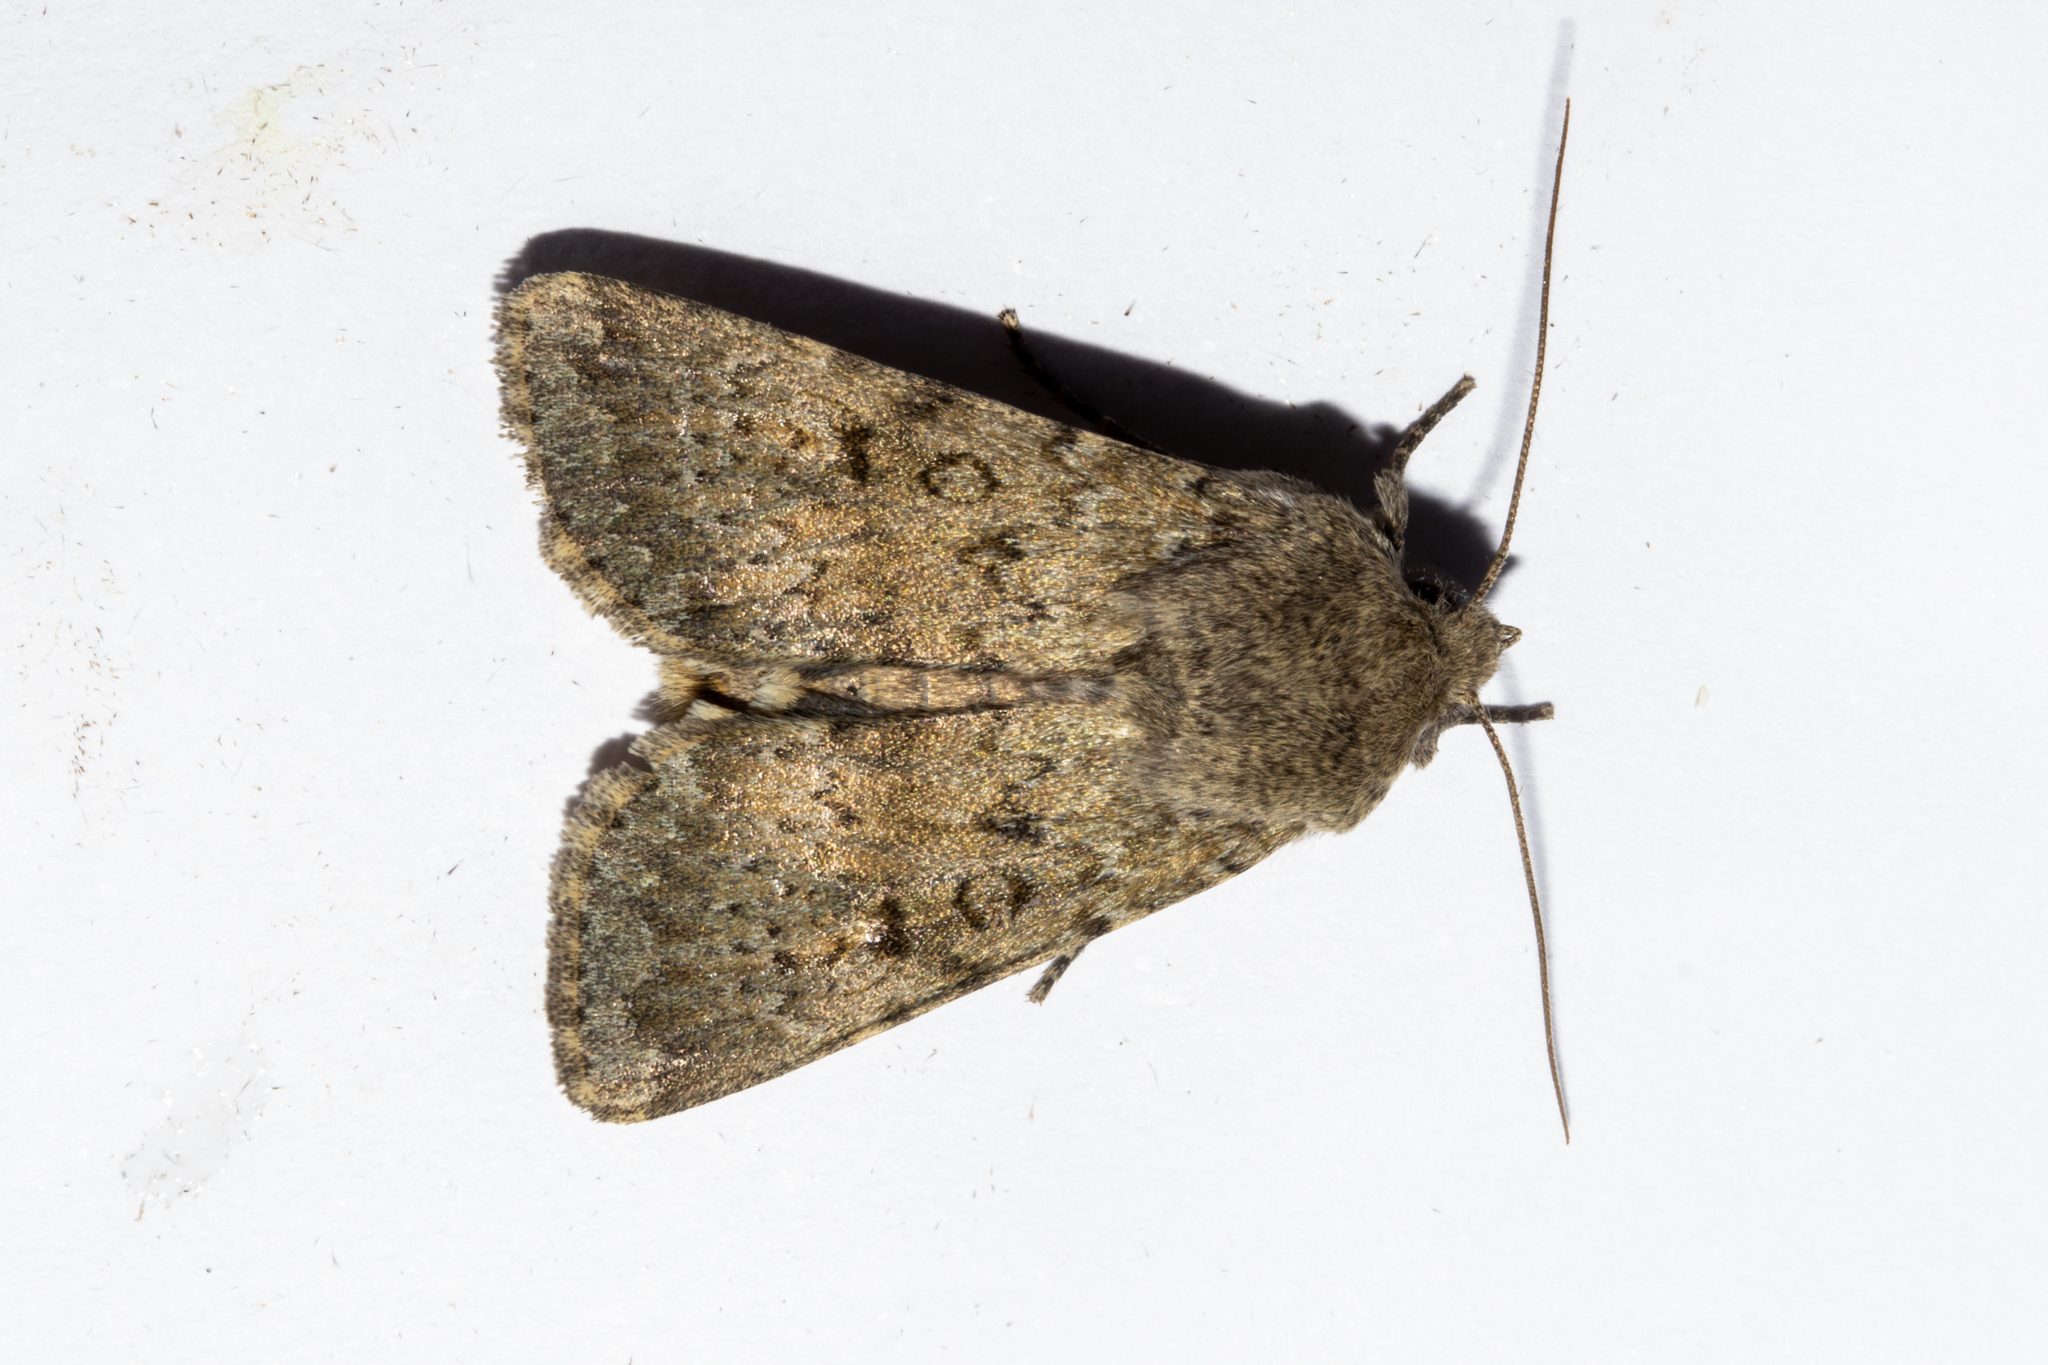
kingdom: Animalia
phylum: Arthropoda
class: Insecta
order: Lepidoptera
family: Noctuidae
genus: Ichneutica
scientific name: Ichneutica moderata
